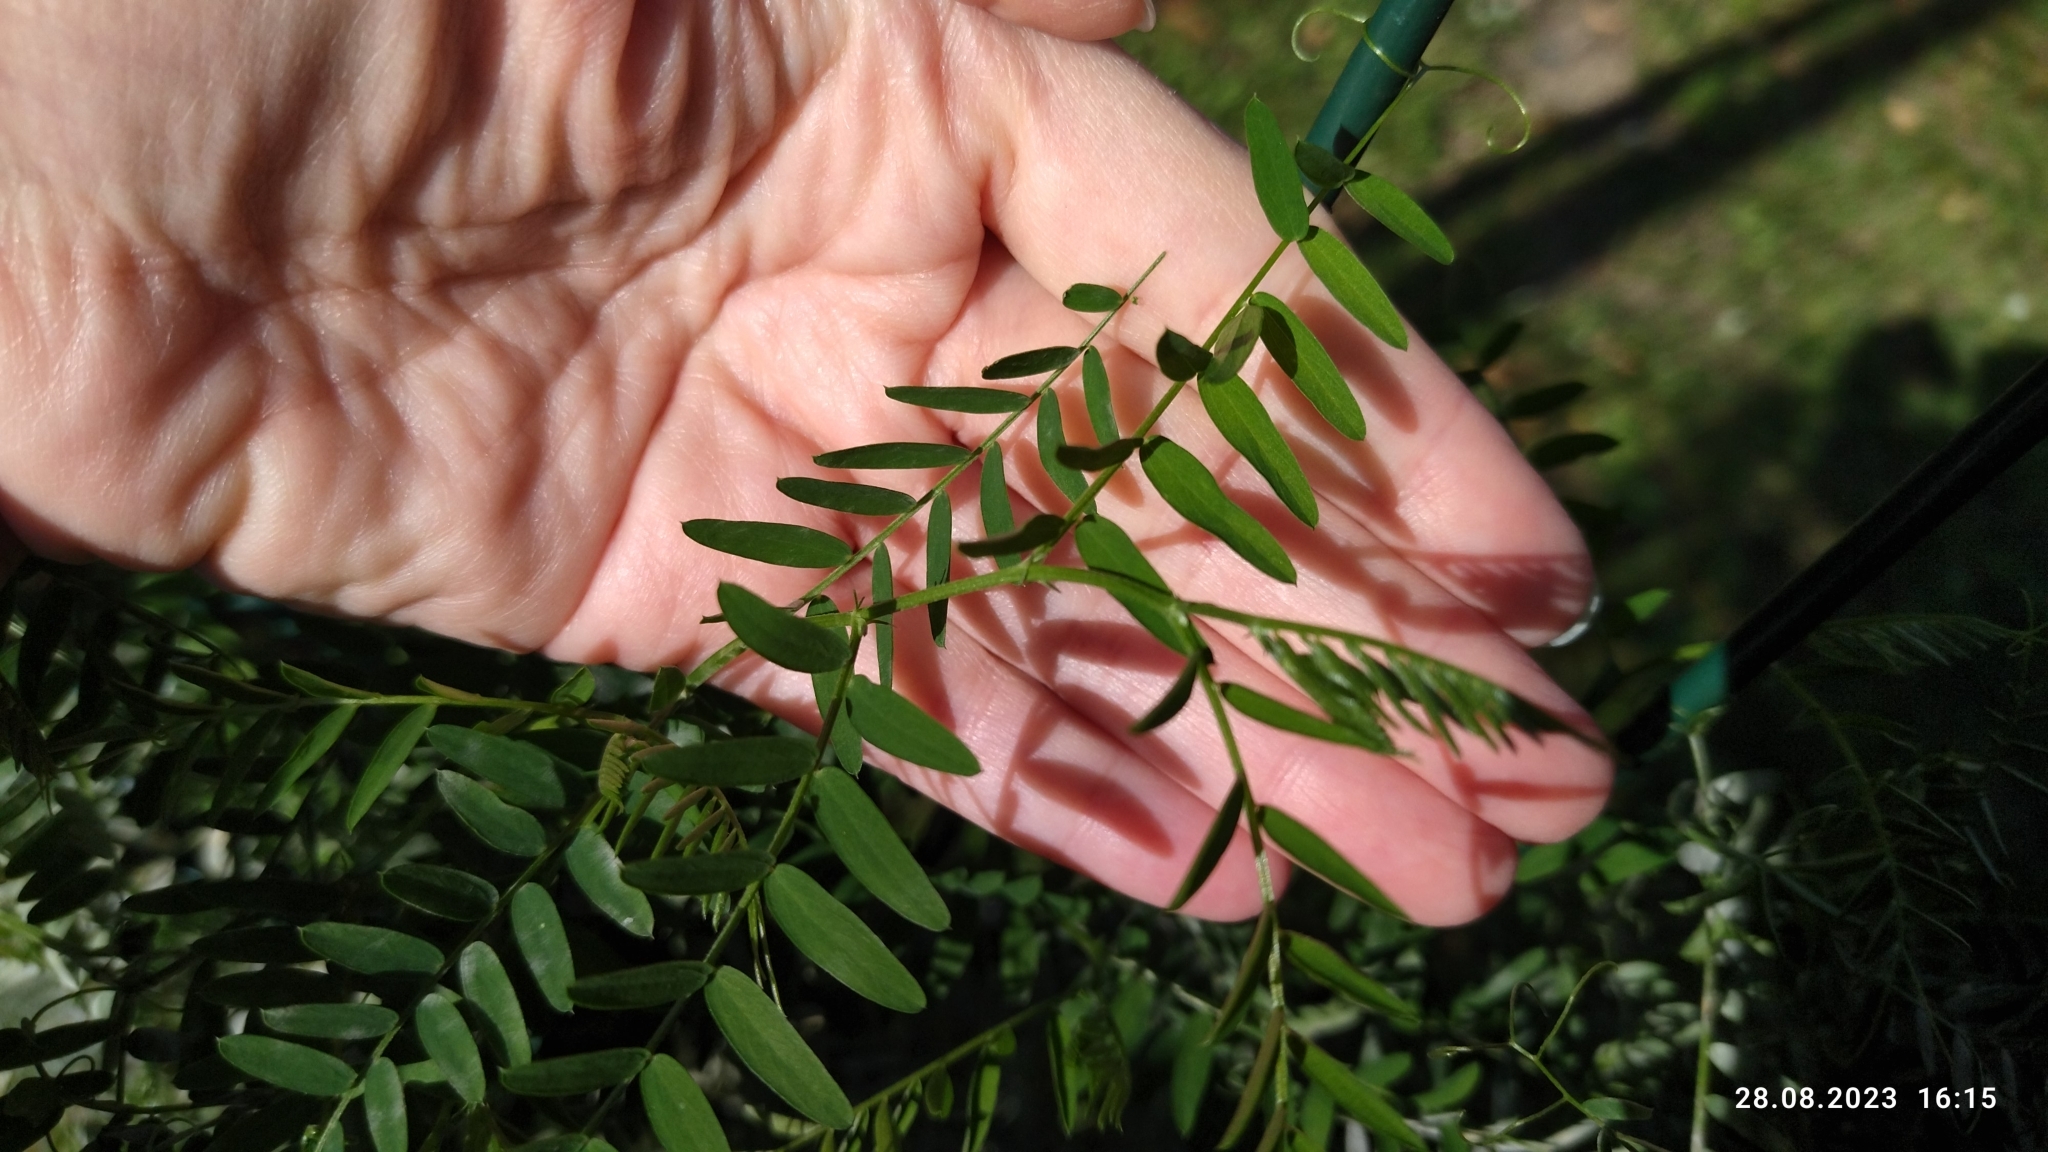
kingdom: Plantae
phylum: Tracheophyta
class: Magnoliopsida
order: Fabales
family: Fabaceae
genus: Vicia
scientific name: Vicia cracca
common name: Bird vetch
